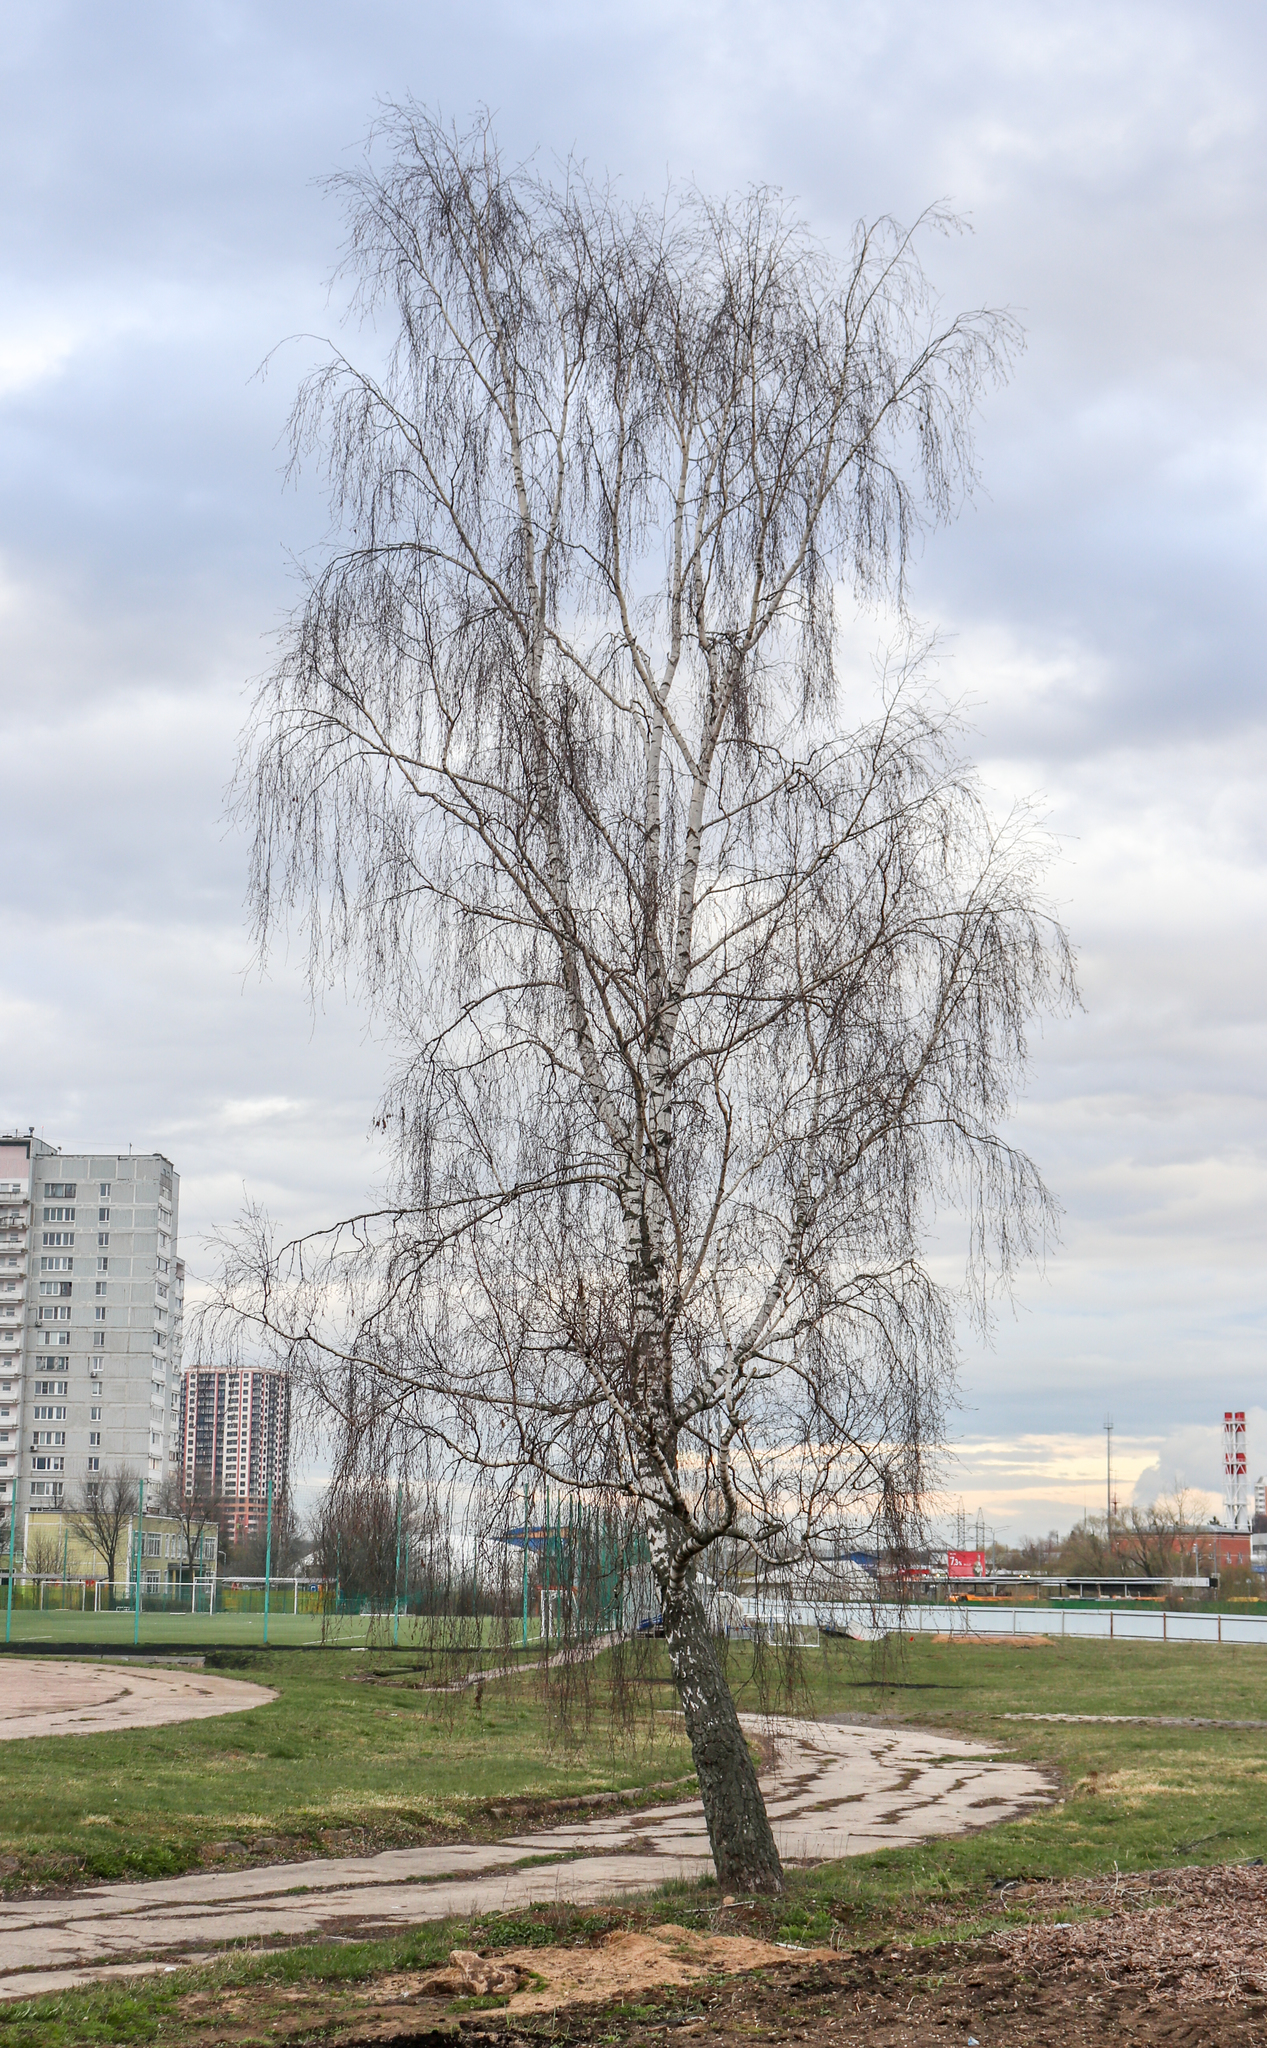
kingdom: Plantae
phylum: Tracheophyta
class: Magnoliopsida
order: Fagales
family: Betulaceae
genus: Betula
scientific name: Betula pendula
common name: Silver birch
